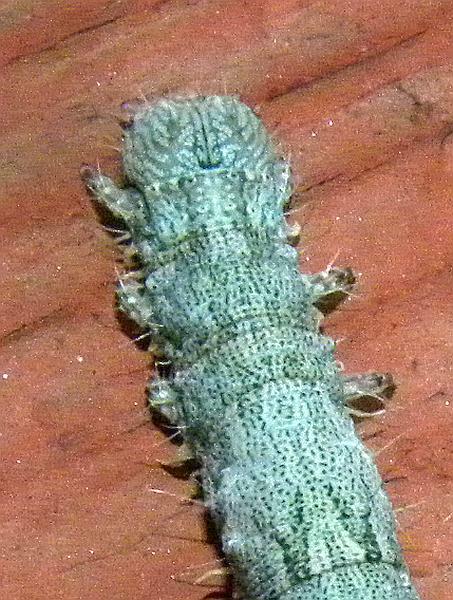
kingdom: Animalia
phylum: Arthropoda
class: Insecta
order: Lepidoptera
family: Erebidae
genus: Catocala
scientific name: Catocala vidua
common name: The widow
